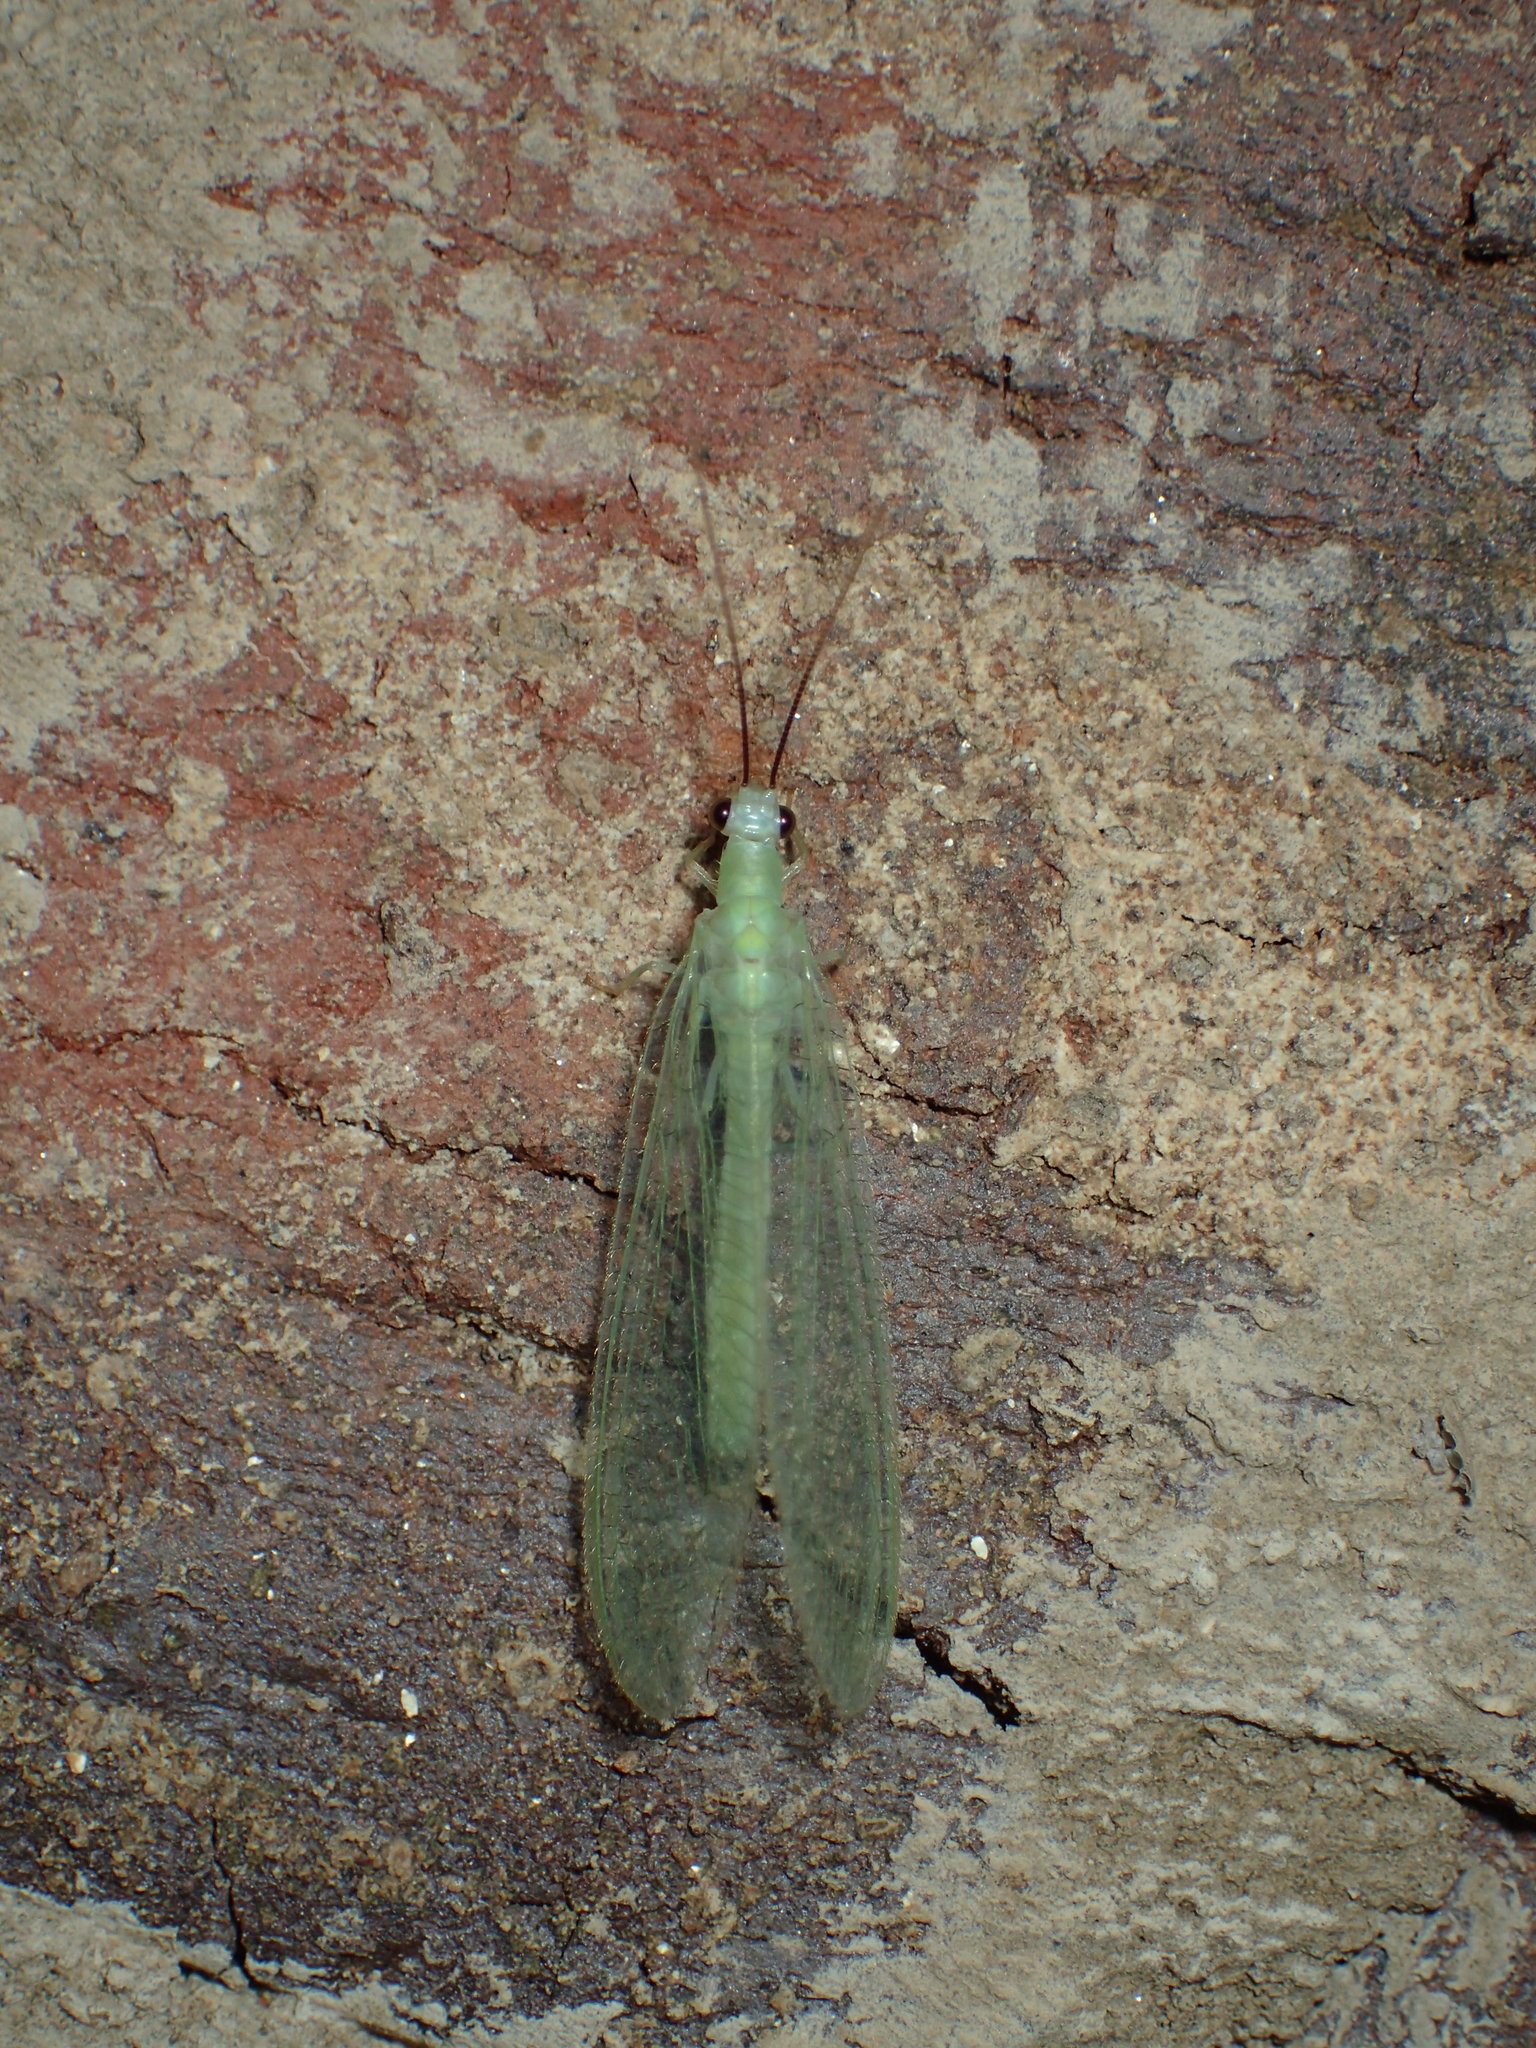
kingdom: Animalia
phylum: Arthropoda
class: Insecta
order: Neuroptera
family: Chrysopidae
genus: Chrysopa
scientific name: Chrysopa nigricornis
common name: Black-horned green lacewing
